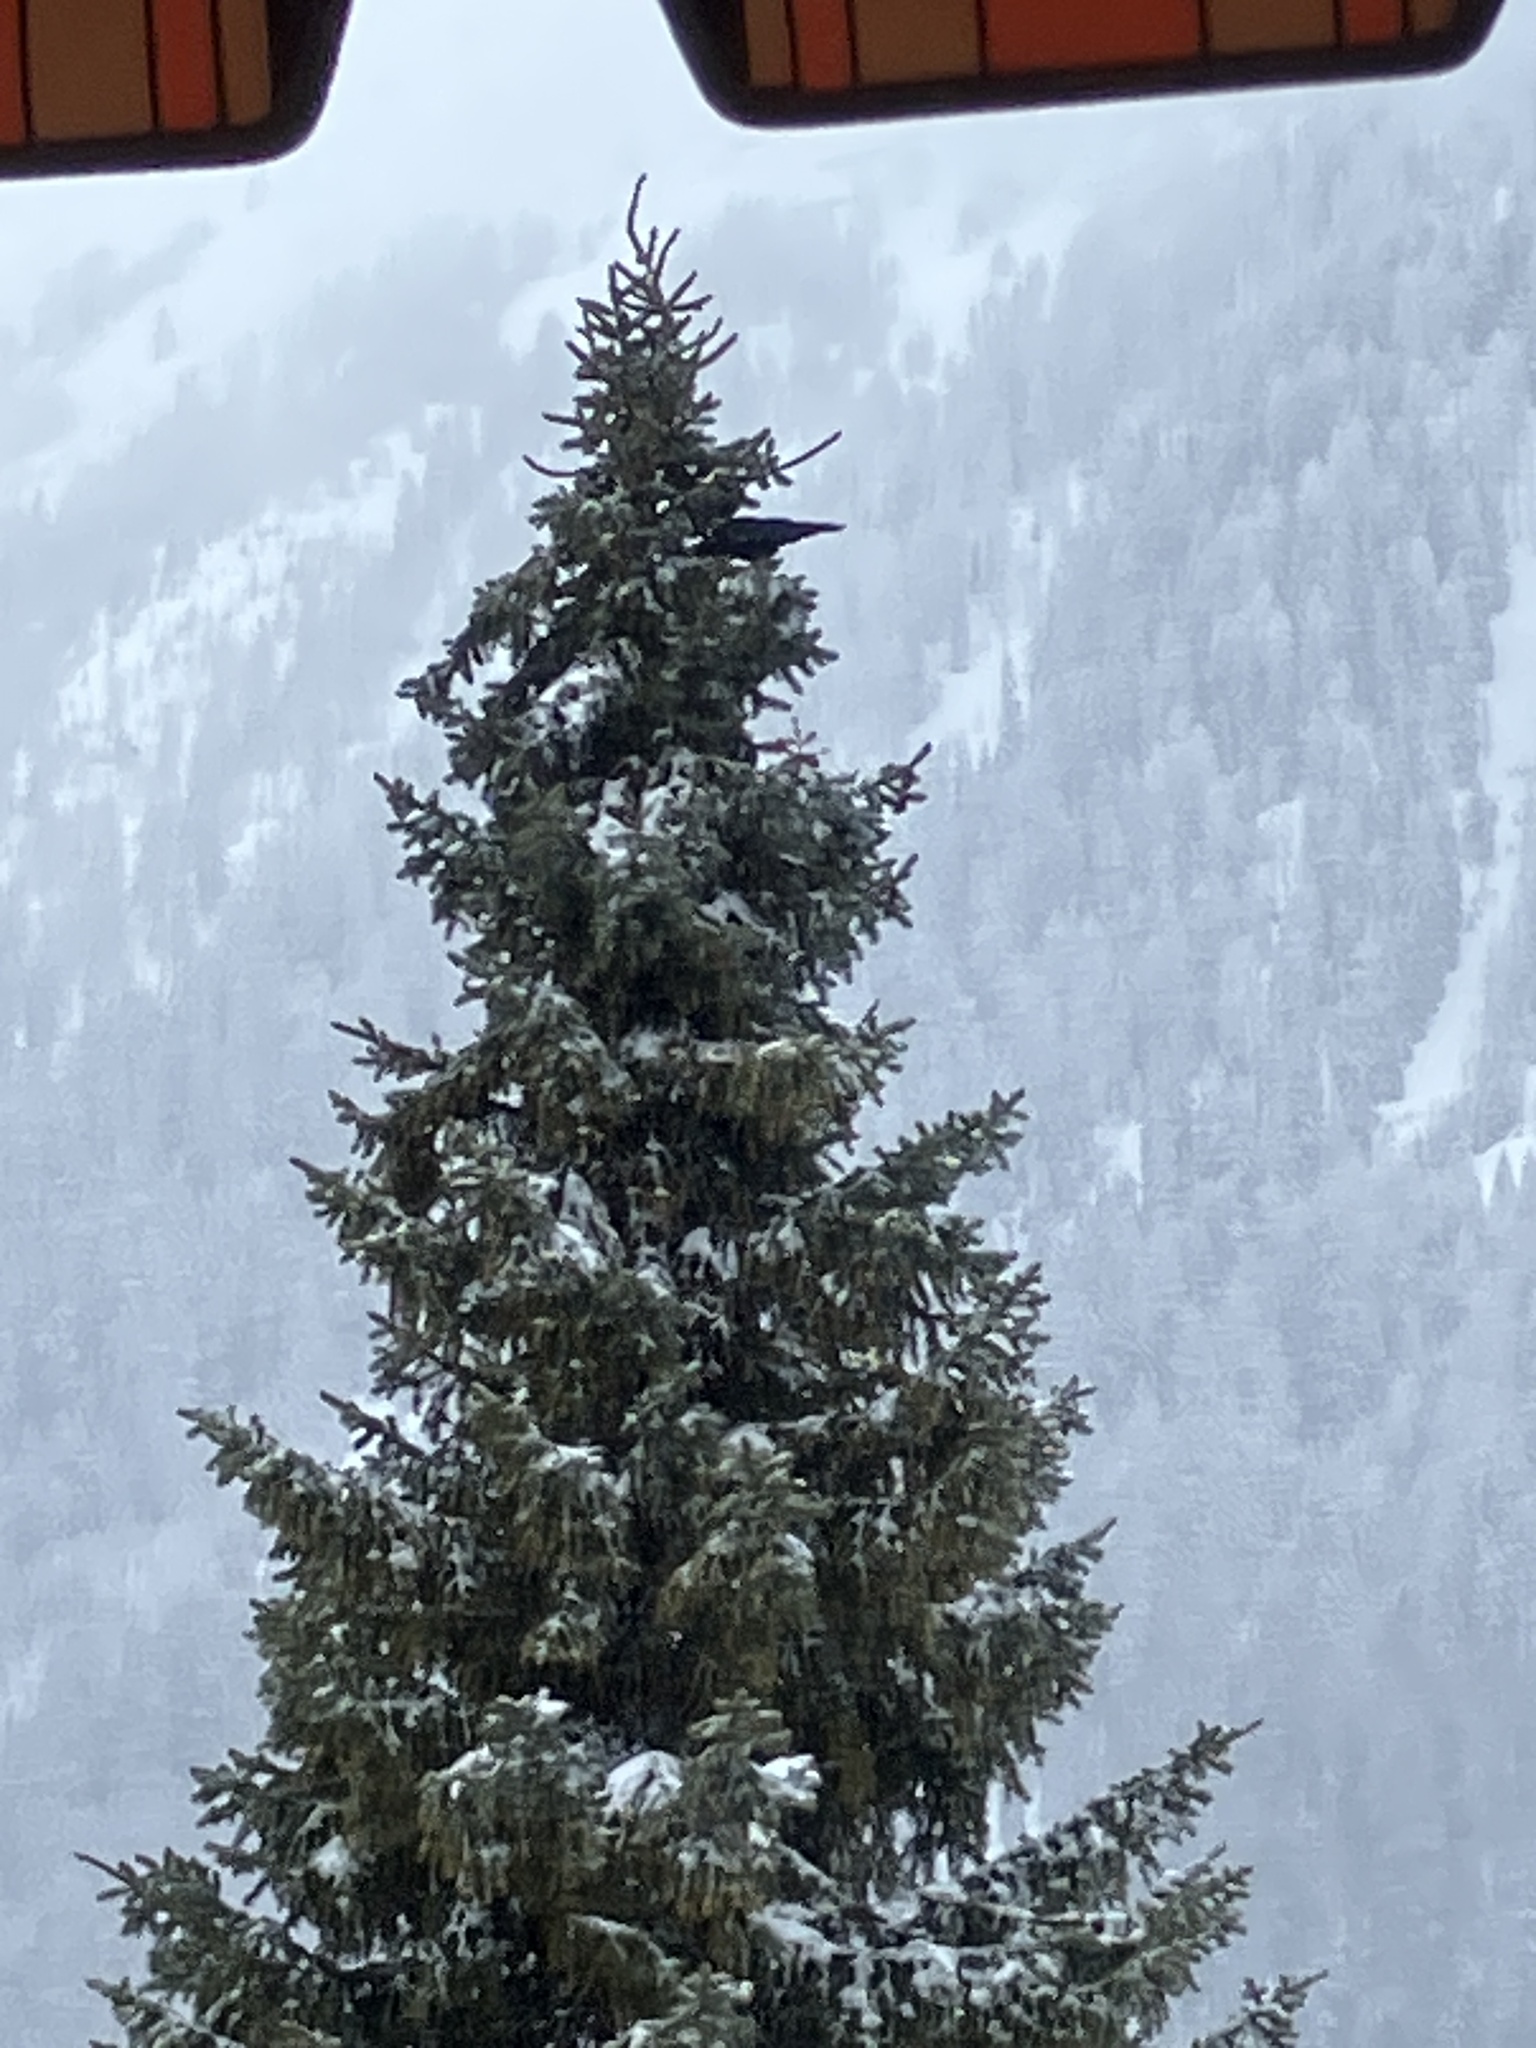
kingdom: Animalia
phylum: Chordata
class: Aves
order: Passeriformes
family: Corvidae
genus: Pyrrhocorax
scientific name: Pyrrhocorax graculus
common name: Alpine chough
